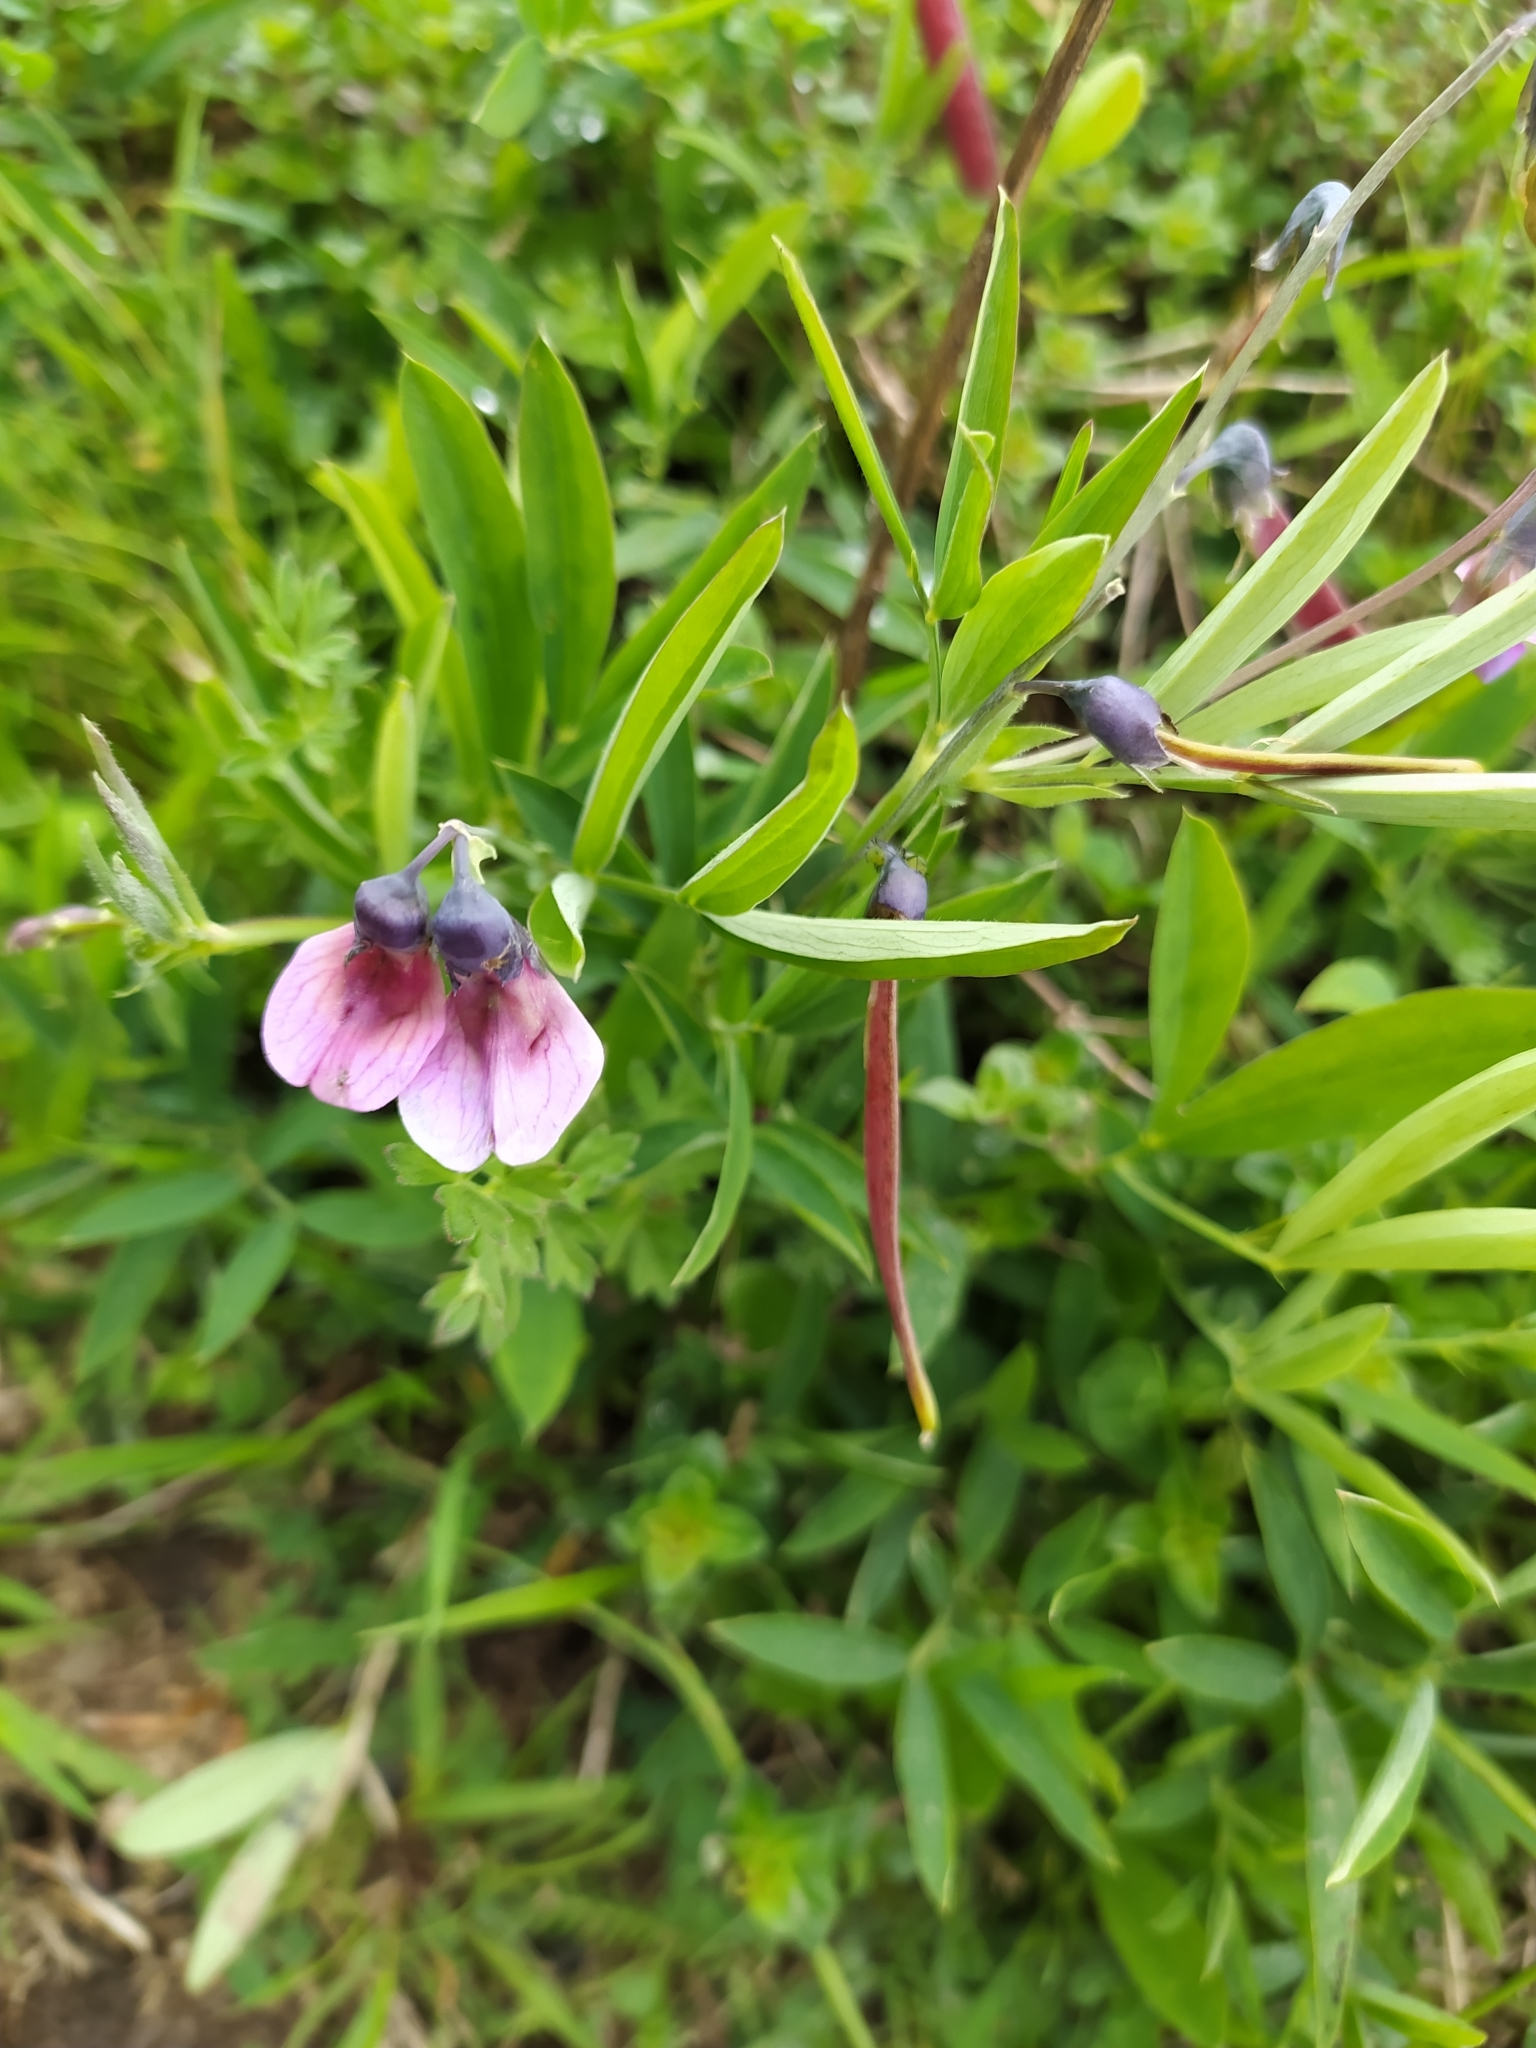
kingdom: Plantae
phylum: Tracheophyta
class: Magnoliopsida
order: Fabales
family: Fabaceae
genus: Lathyrus
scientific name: Lathyrus linifolius
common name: Bitter-vetch
